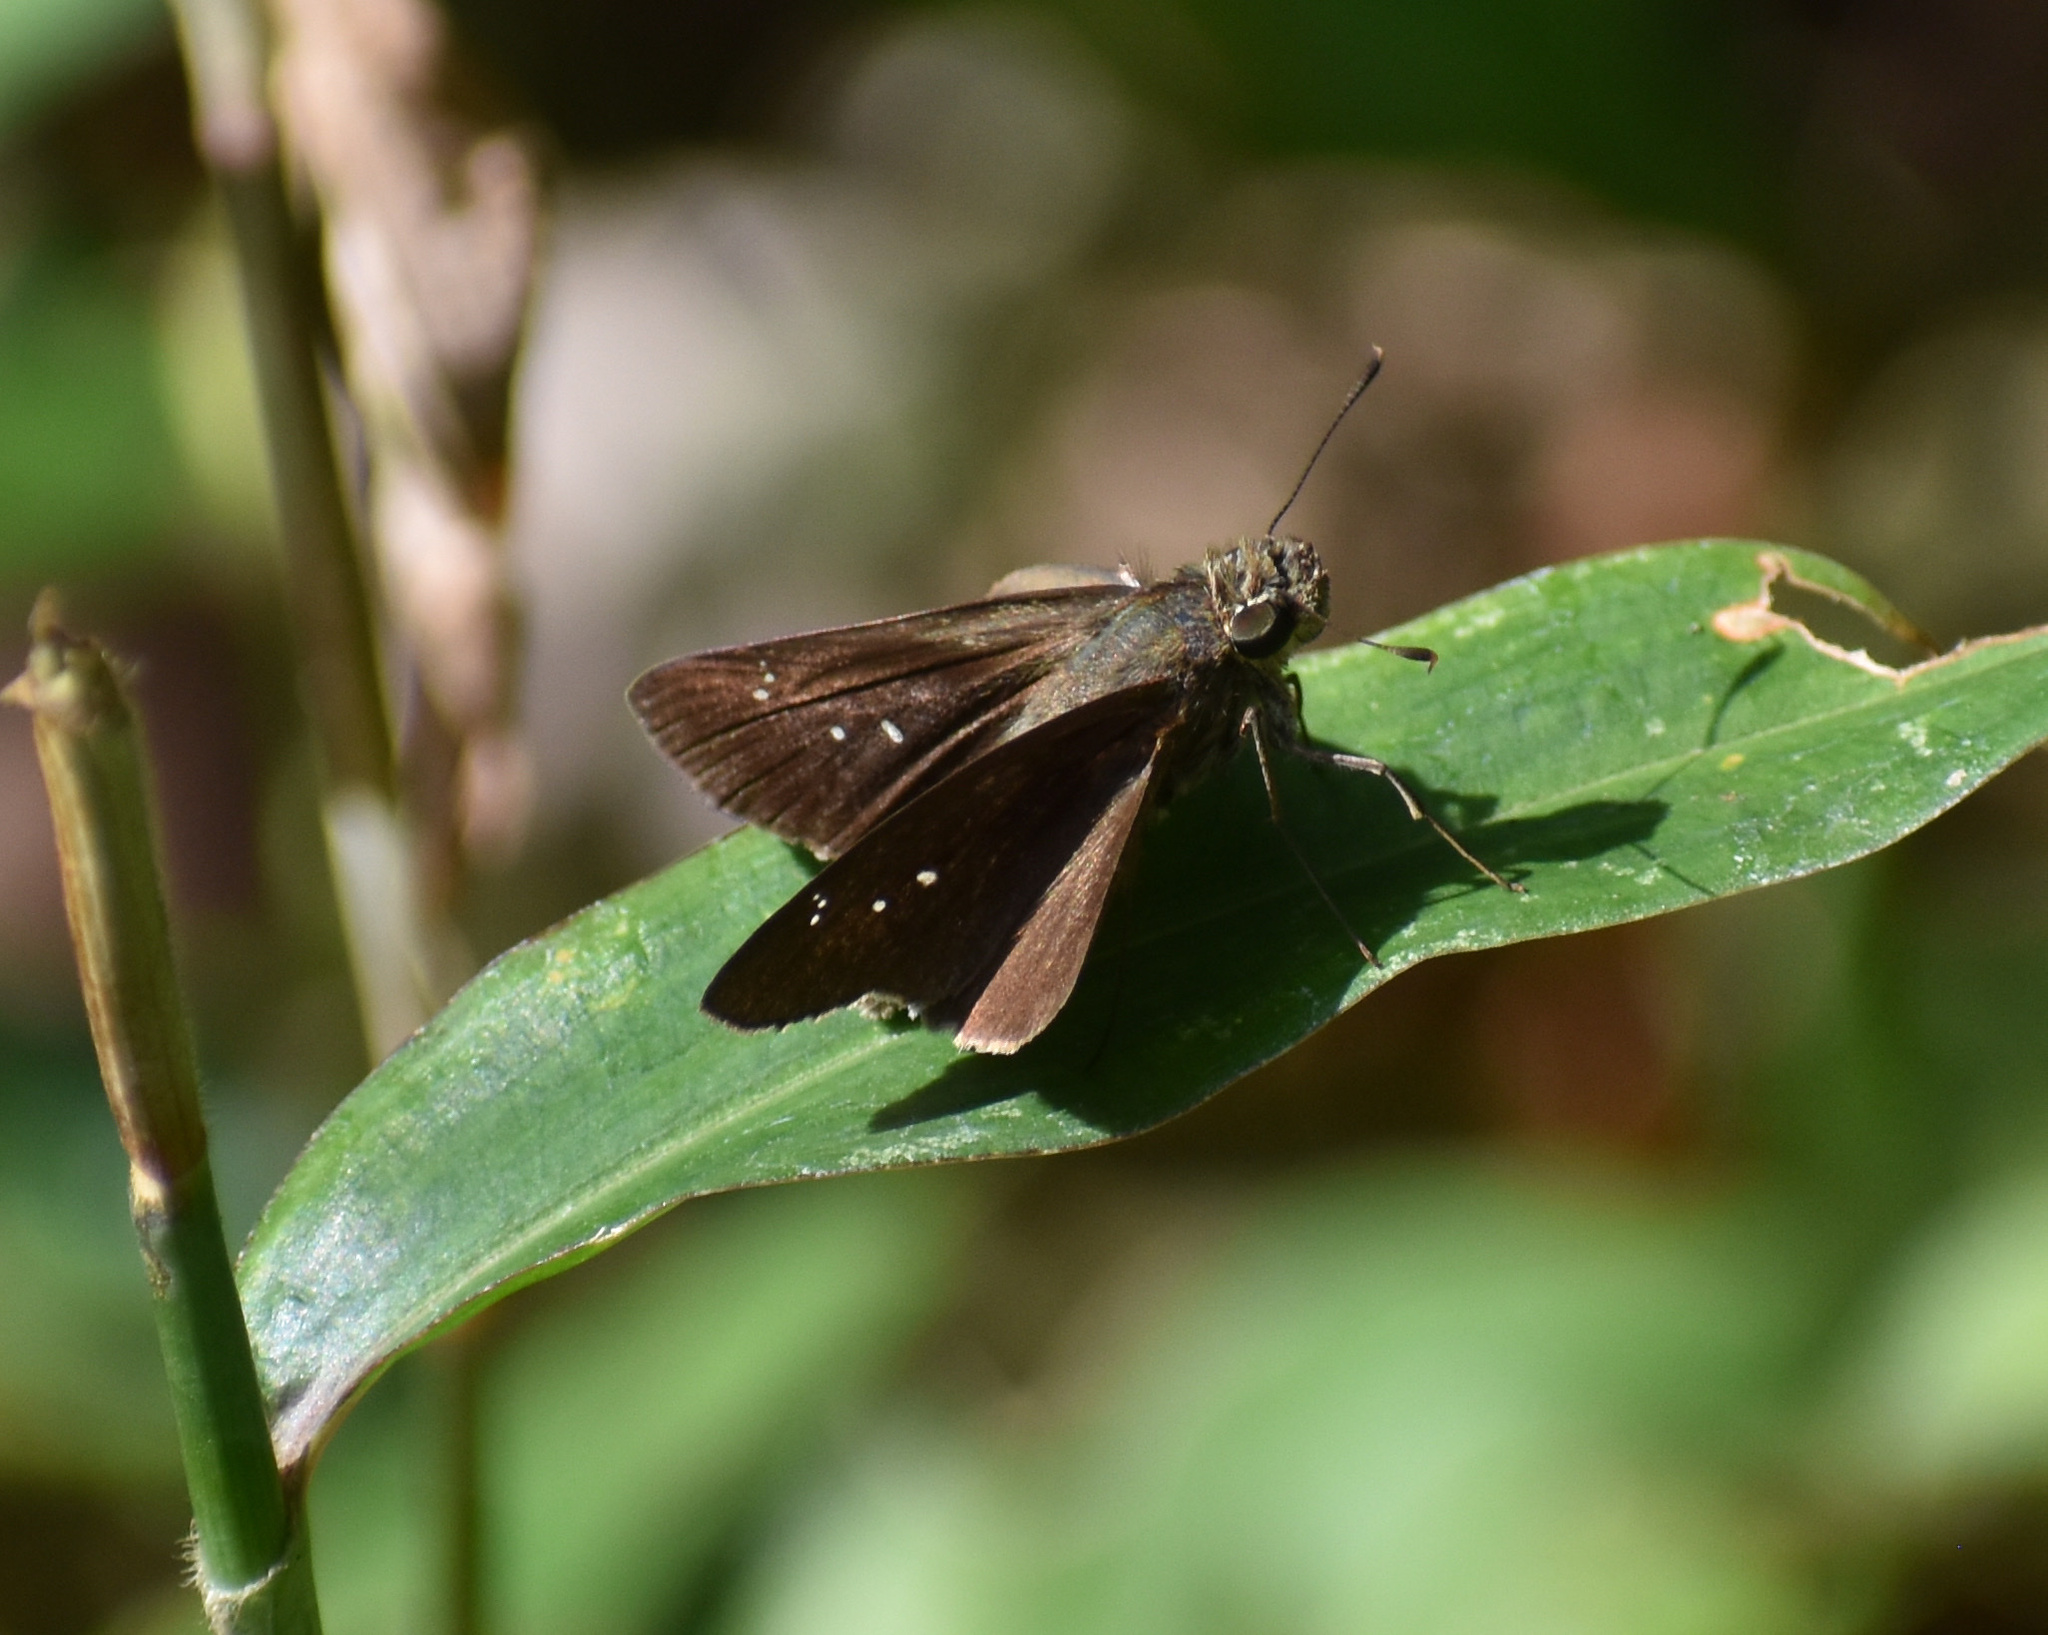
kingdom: Animalia
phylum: Arthropoda
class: Insecta
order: Lepidoptera
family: Hesperiidae
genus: Baoris
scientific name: Baoris fatuellus
